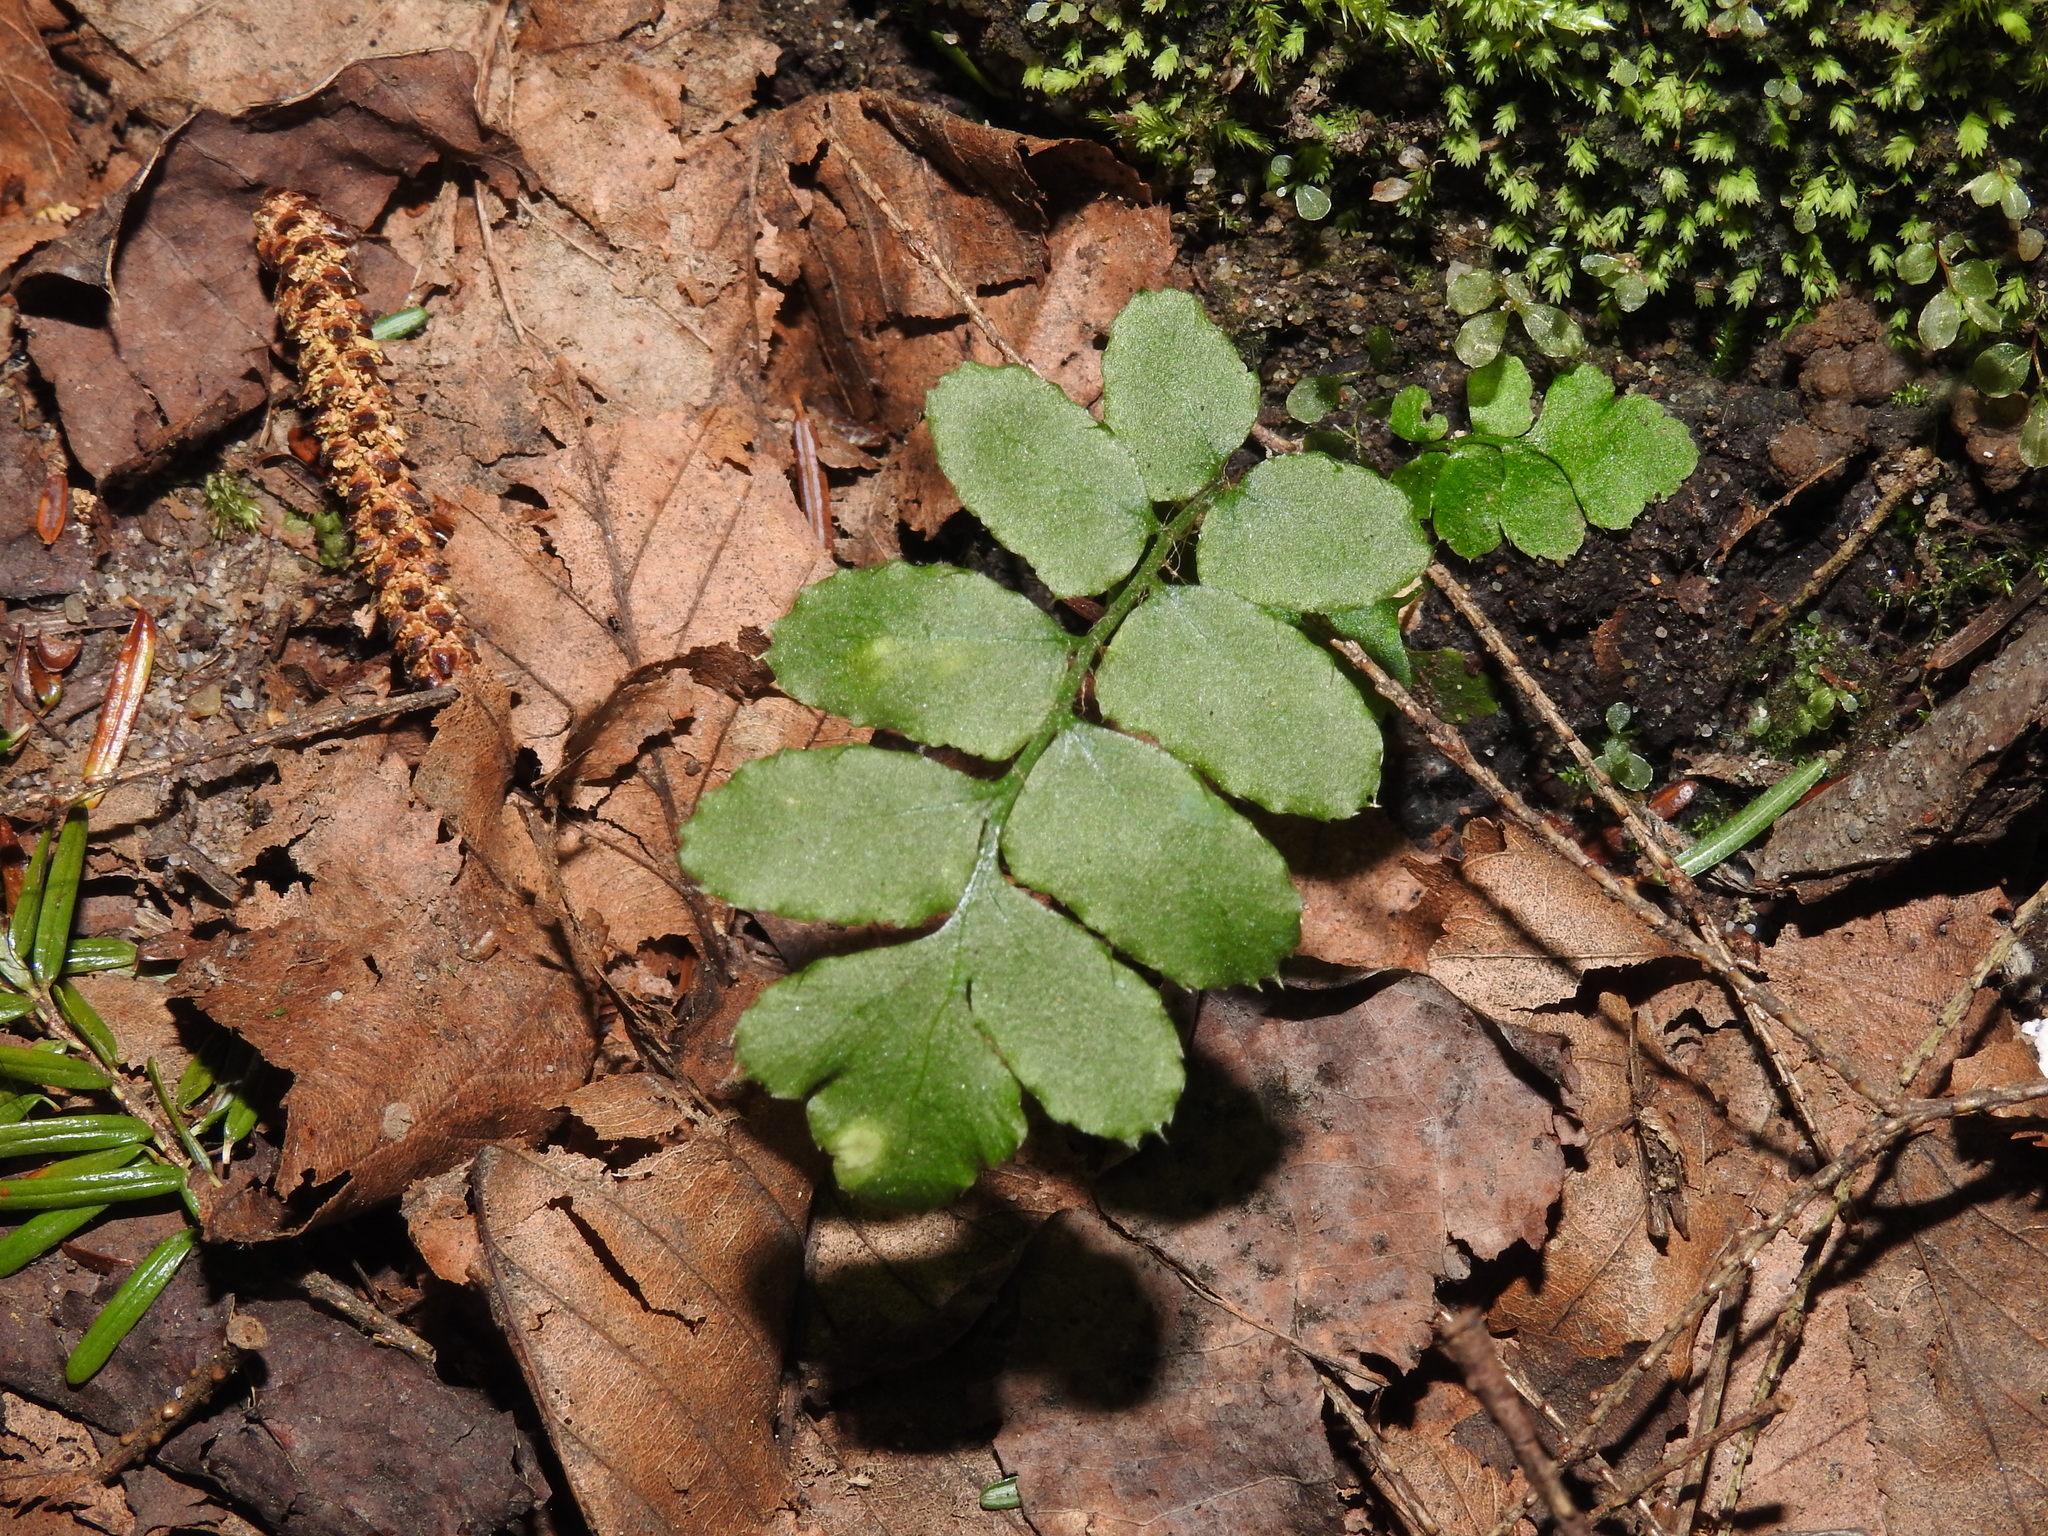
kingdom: Plantae
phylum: Tracheophyta
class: Polypodiopsida
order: Polypodiales
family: Dryopteridaceae
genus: Polystichum
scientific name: Polystichum acrostichoides
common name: Christmas fern
